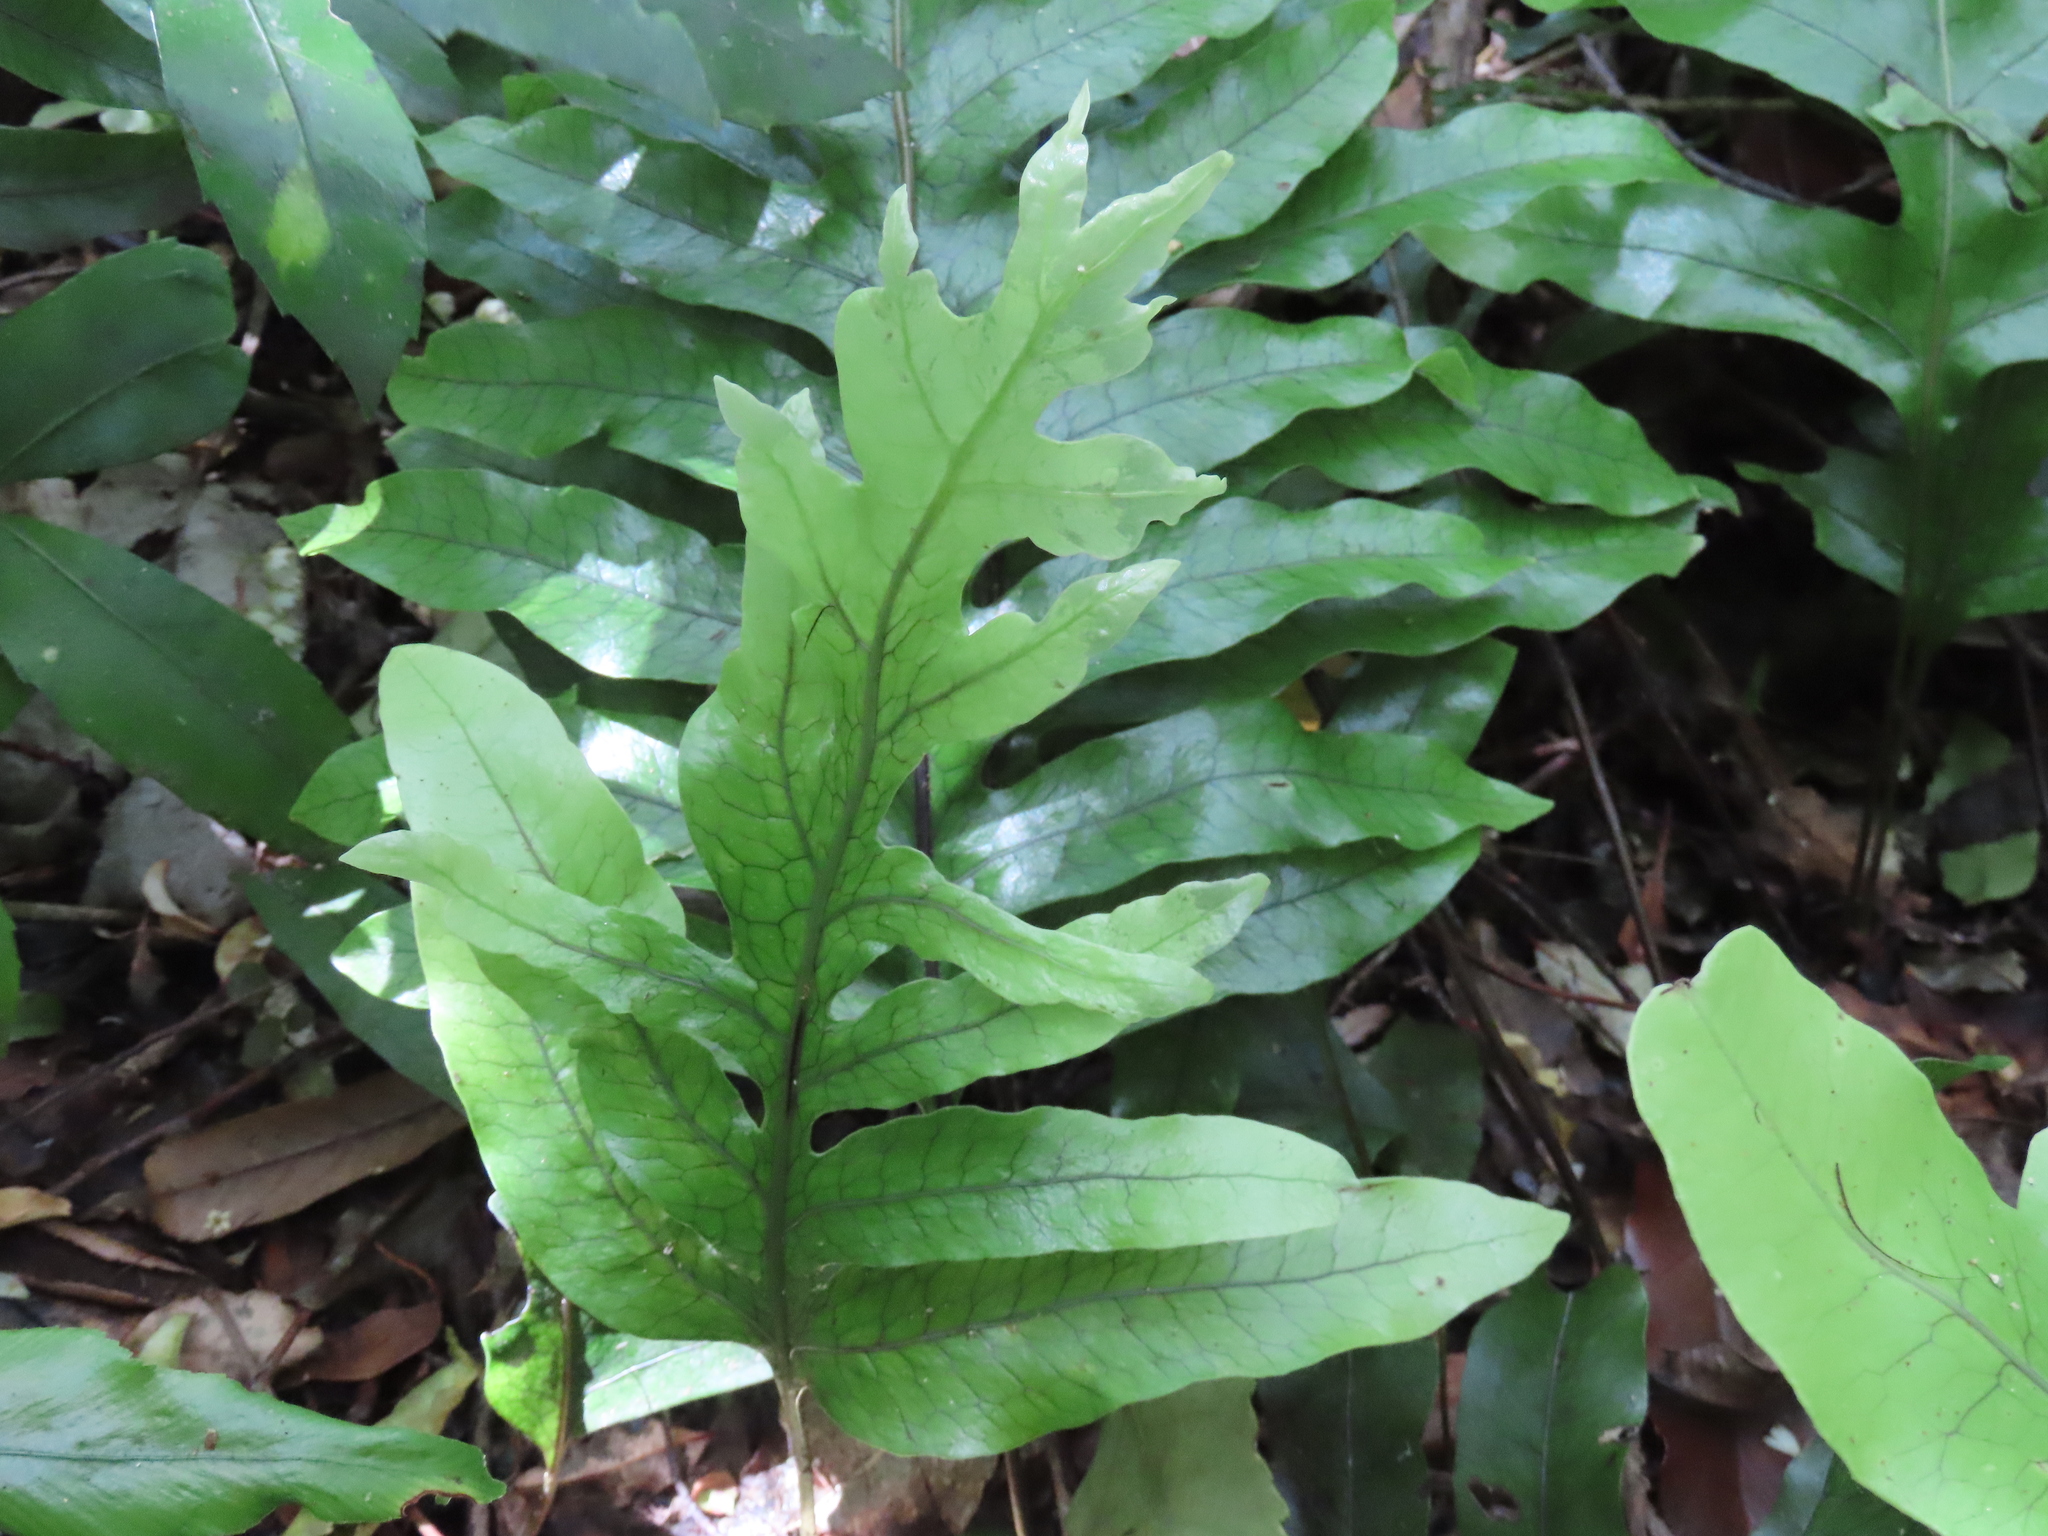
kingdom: Plantae
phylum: Tracheophyta
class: Polypodiopsida
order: Polypodiales
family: Polypodiaceae
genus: Lecanopteris
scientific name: Lecanopteris pustulata
